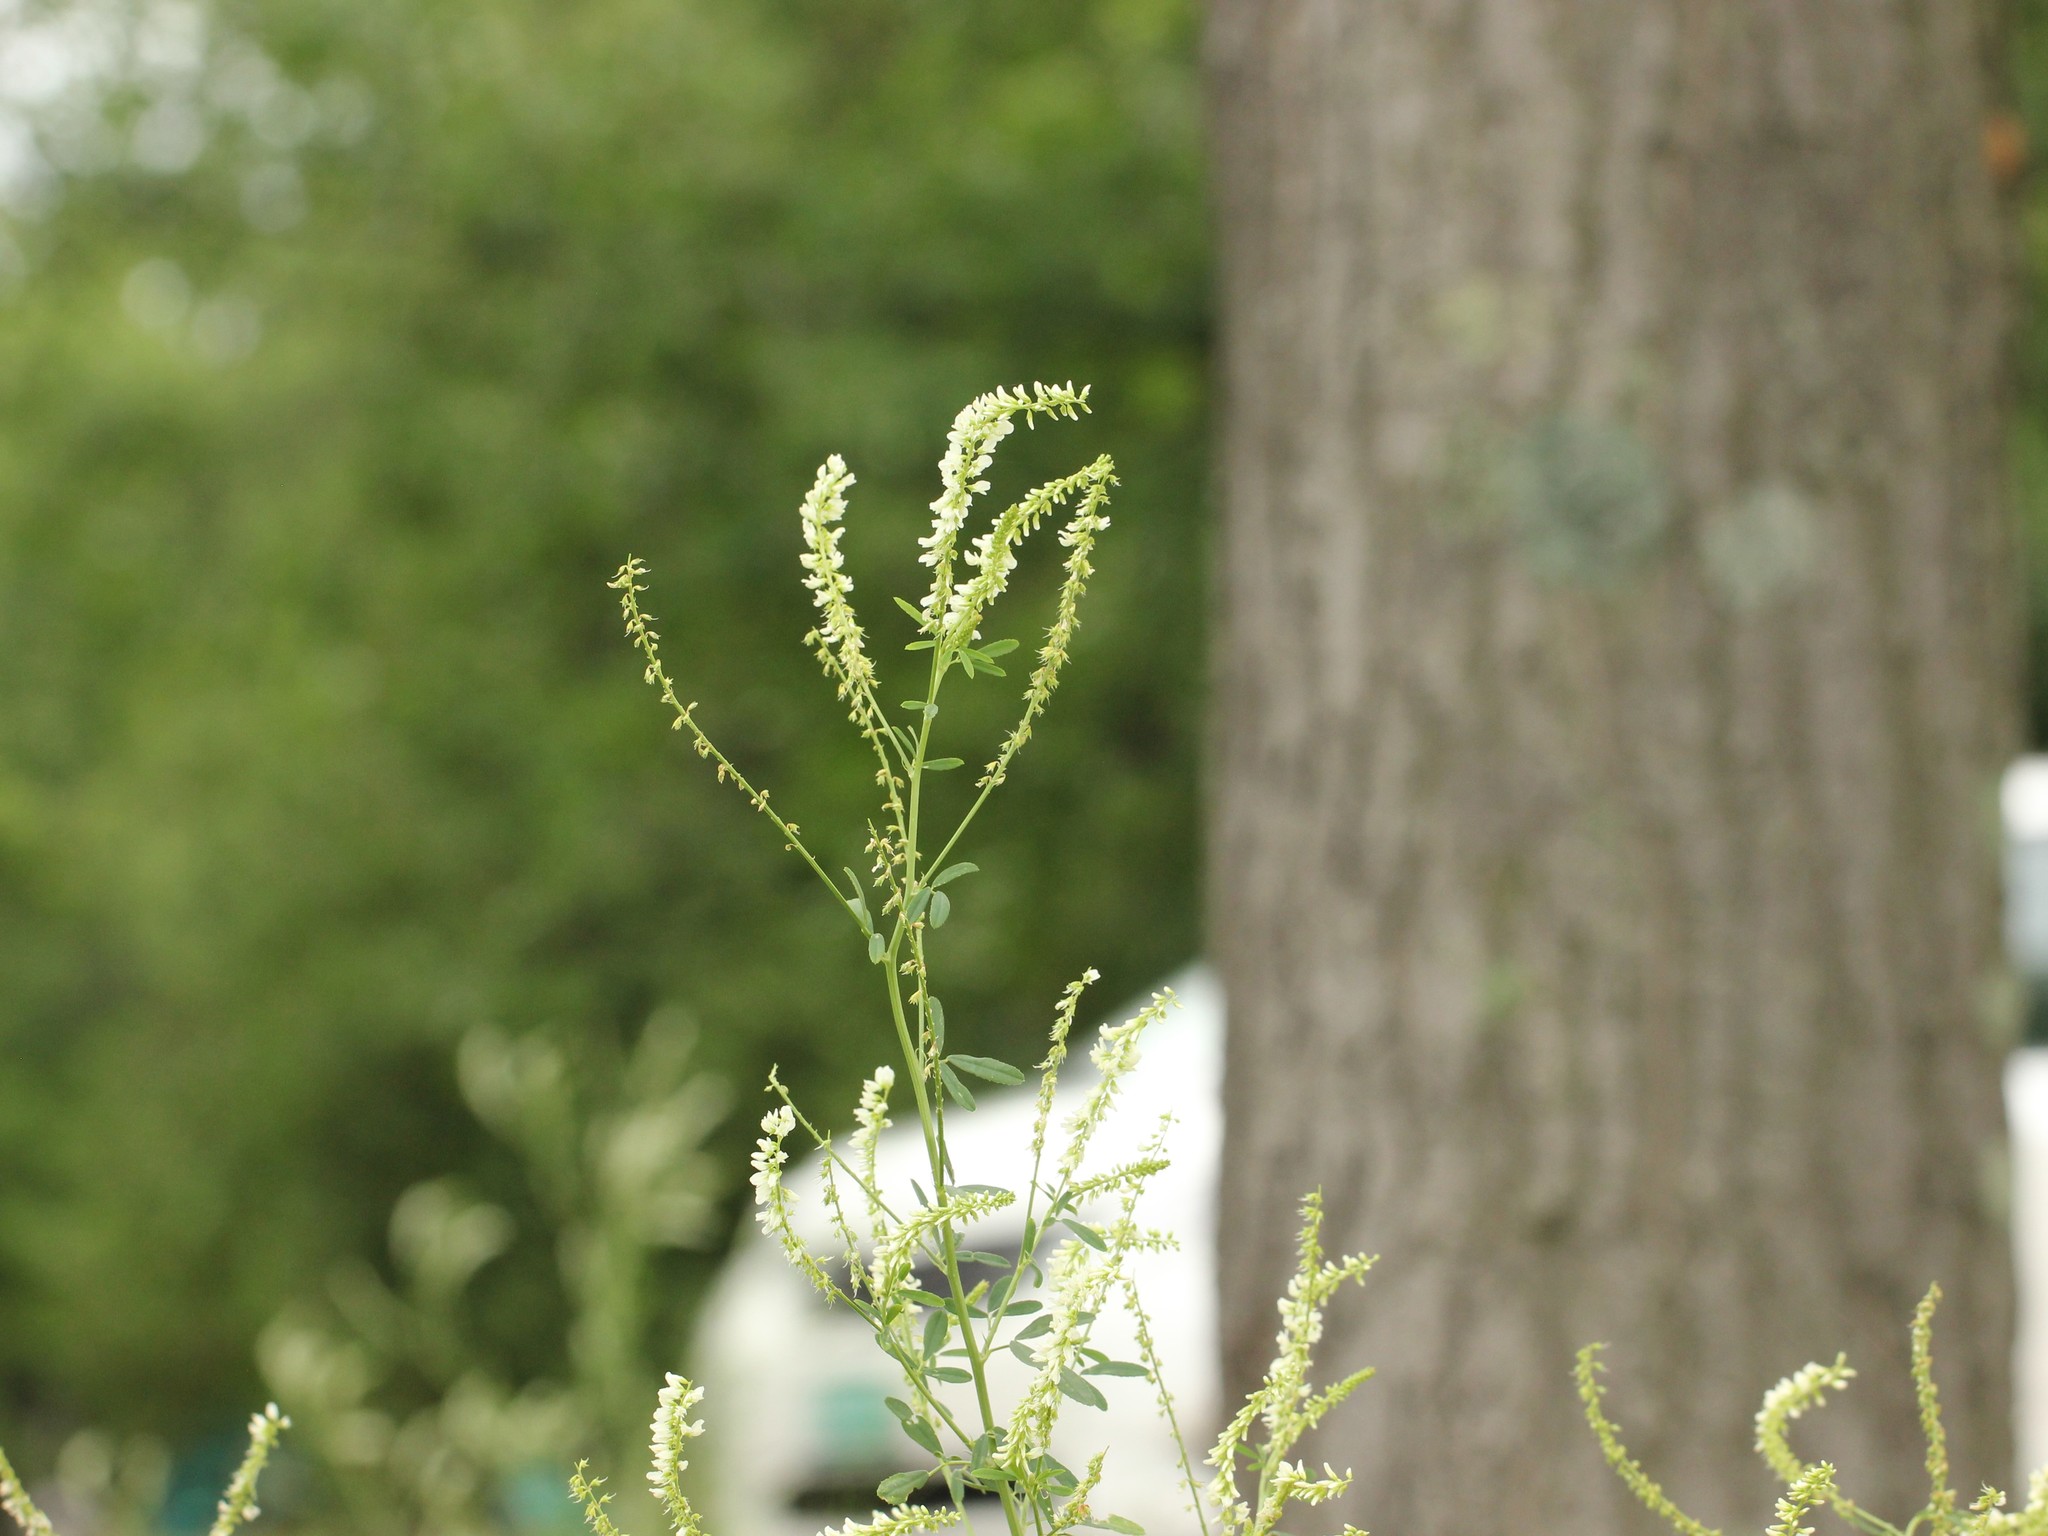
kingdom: Plantae
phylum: Tracheophyta
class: Magnoliopsida
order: Fabales
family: Fabaceae
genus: Melilotus
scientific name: Melilotus albus
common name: White melilot
